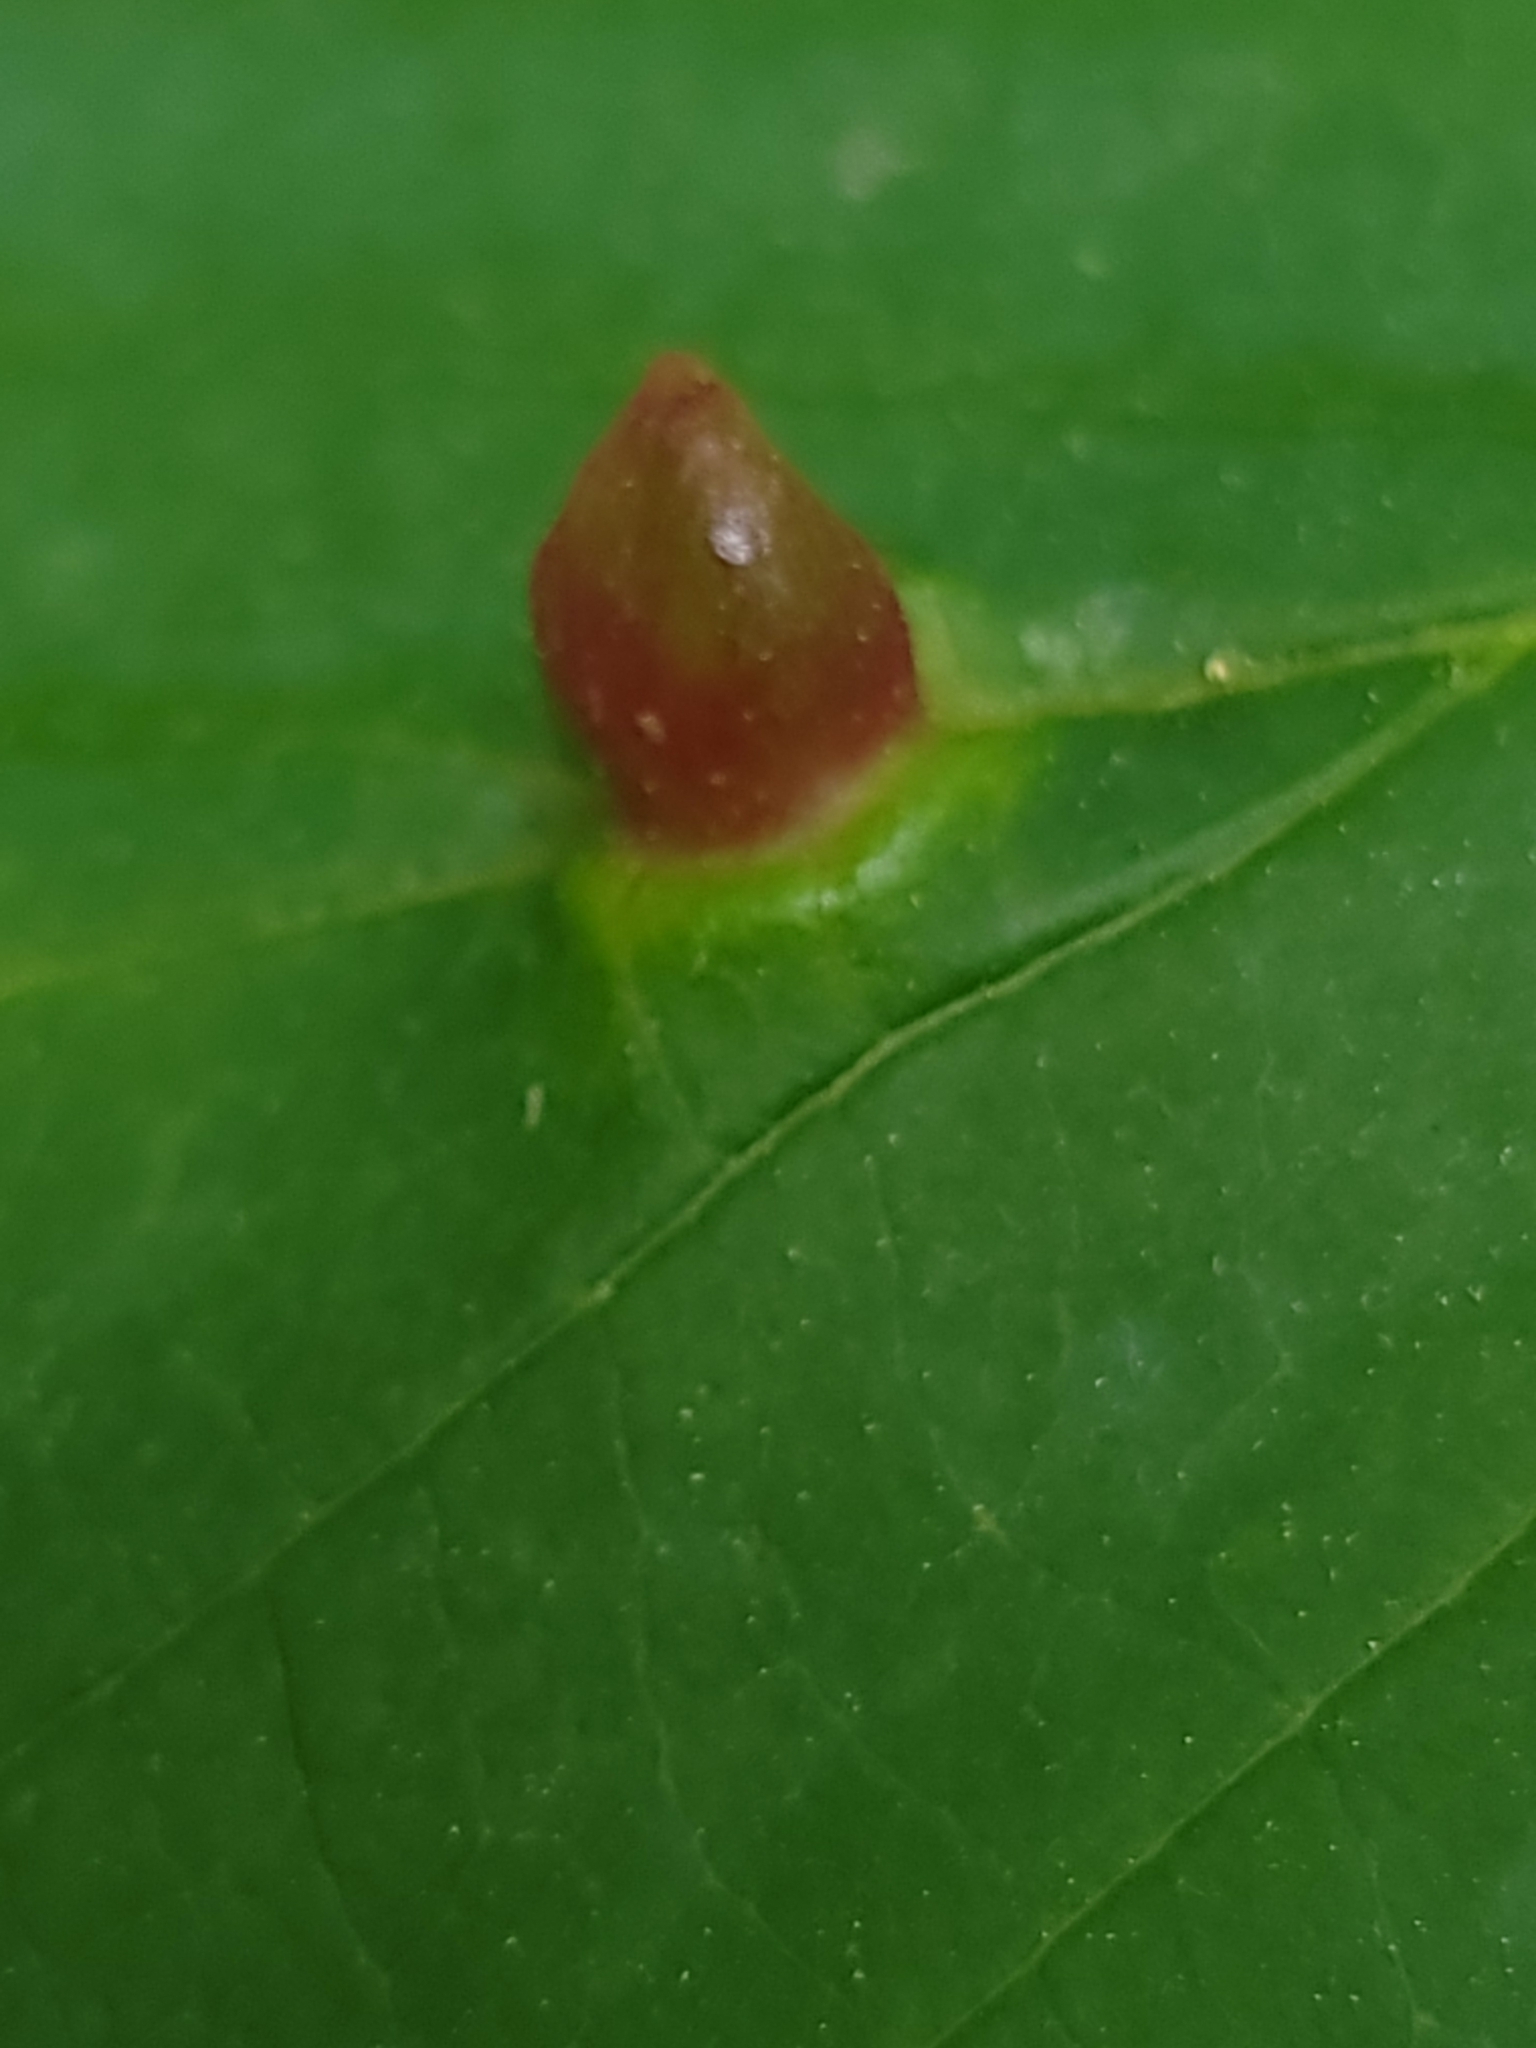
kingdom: Animalia
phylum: Arthropoda
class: Insecta
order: Hemiptera
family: Aphididae
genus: Hormaphis
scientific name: Hormaphis hamamelidis
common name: Witch-hazel cone gall aphid
